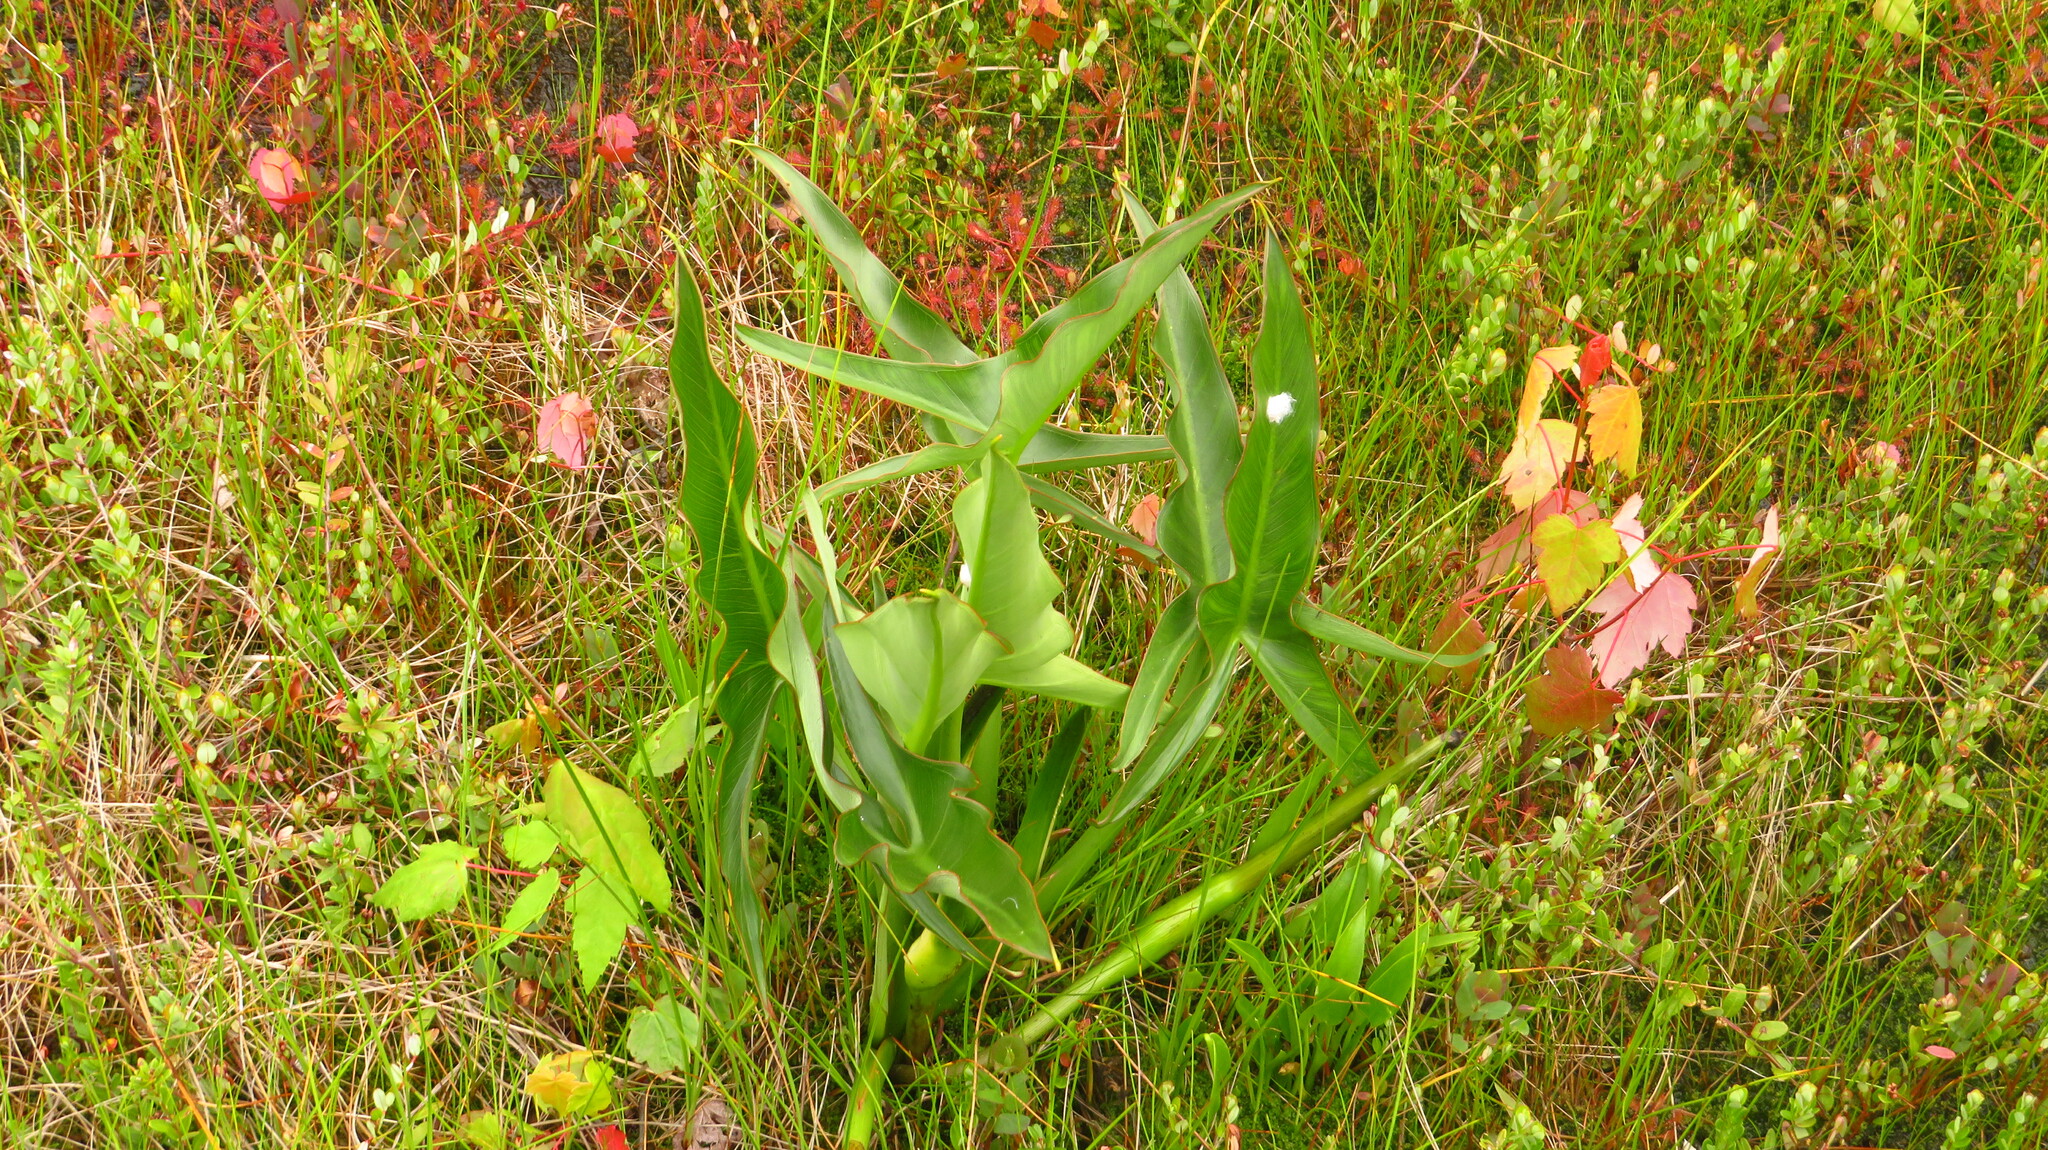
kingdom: Plantae
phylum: Tracheophyta
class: Liliopsida
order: Alismatales
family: Araceae
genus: Peltandra
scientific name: Peltandra virginica
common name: Arrow arum
